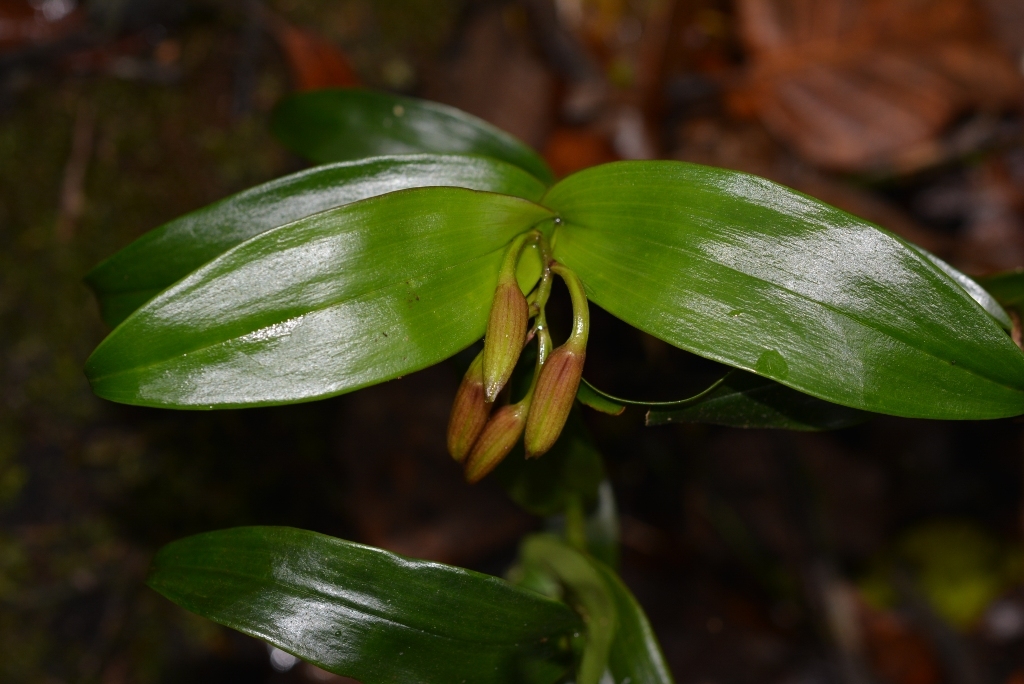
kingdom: Plantae
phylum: Tracheophyta
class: Liliopsida
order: Asparagales
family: Orchidaceae
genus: Epidendrum
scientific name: Epidendrum eximium
